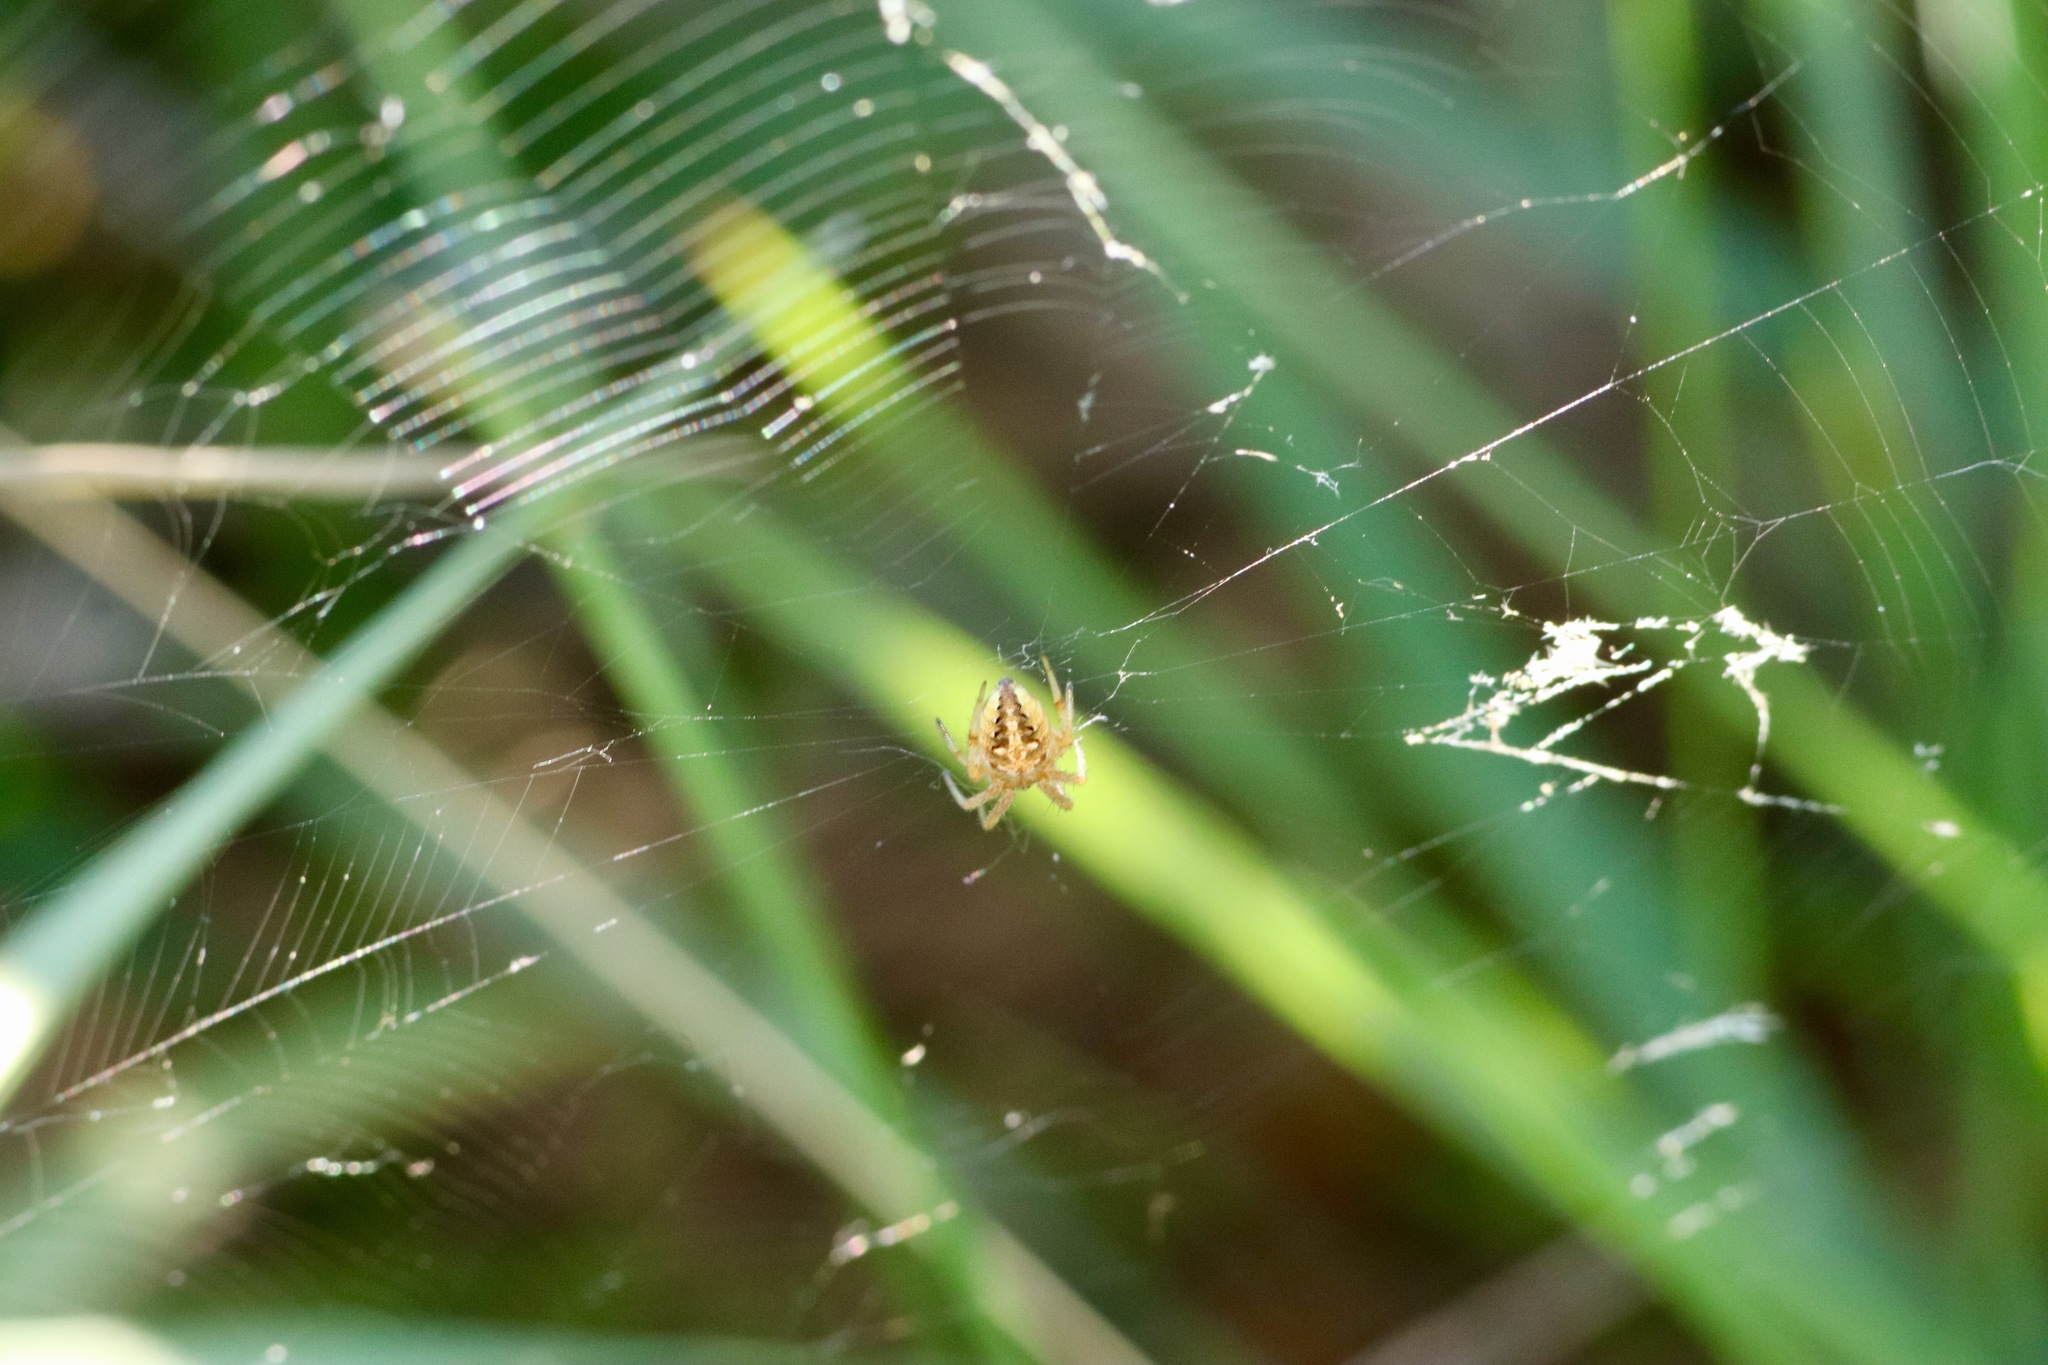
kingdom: Animalia
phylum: Arthropoda
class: Arachnida
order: Araneae
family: Araneidae
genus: Neoscona
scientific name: Neoscona arabesca
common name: Orb weavers
